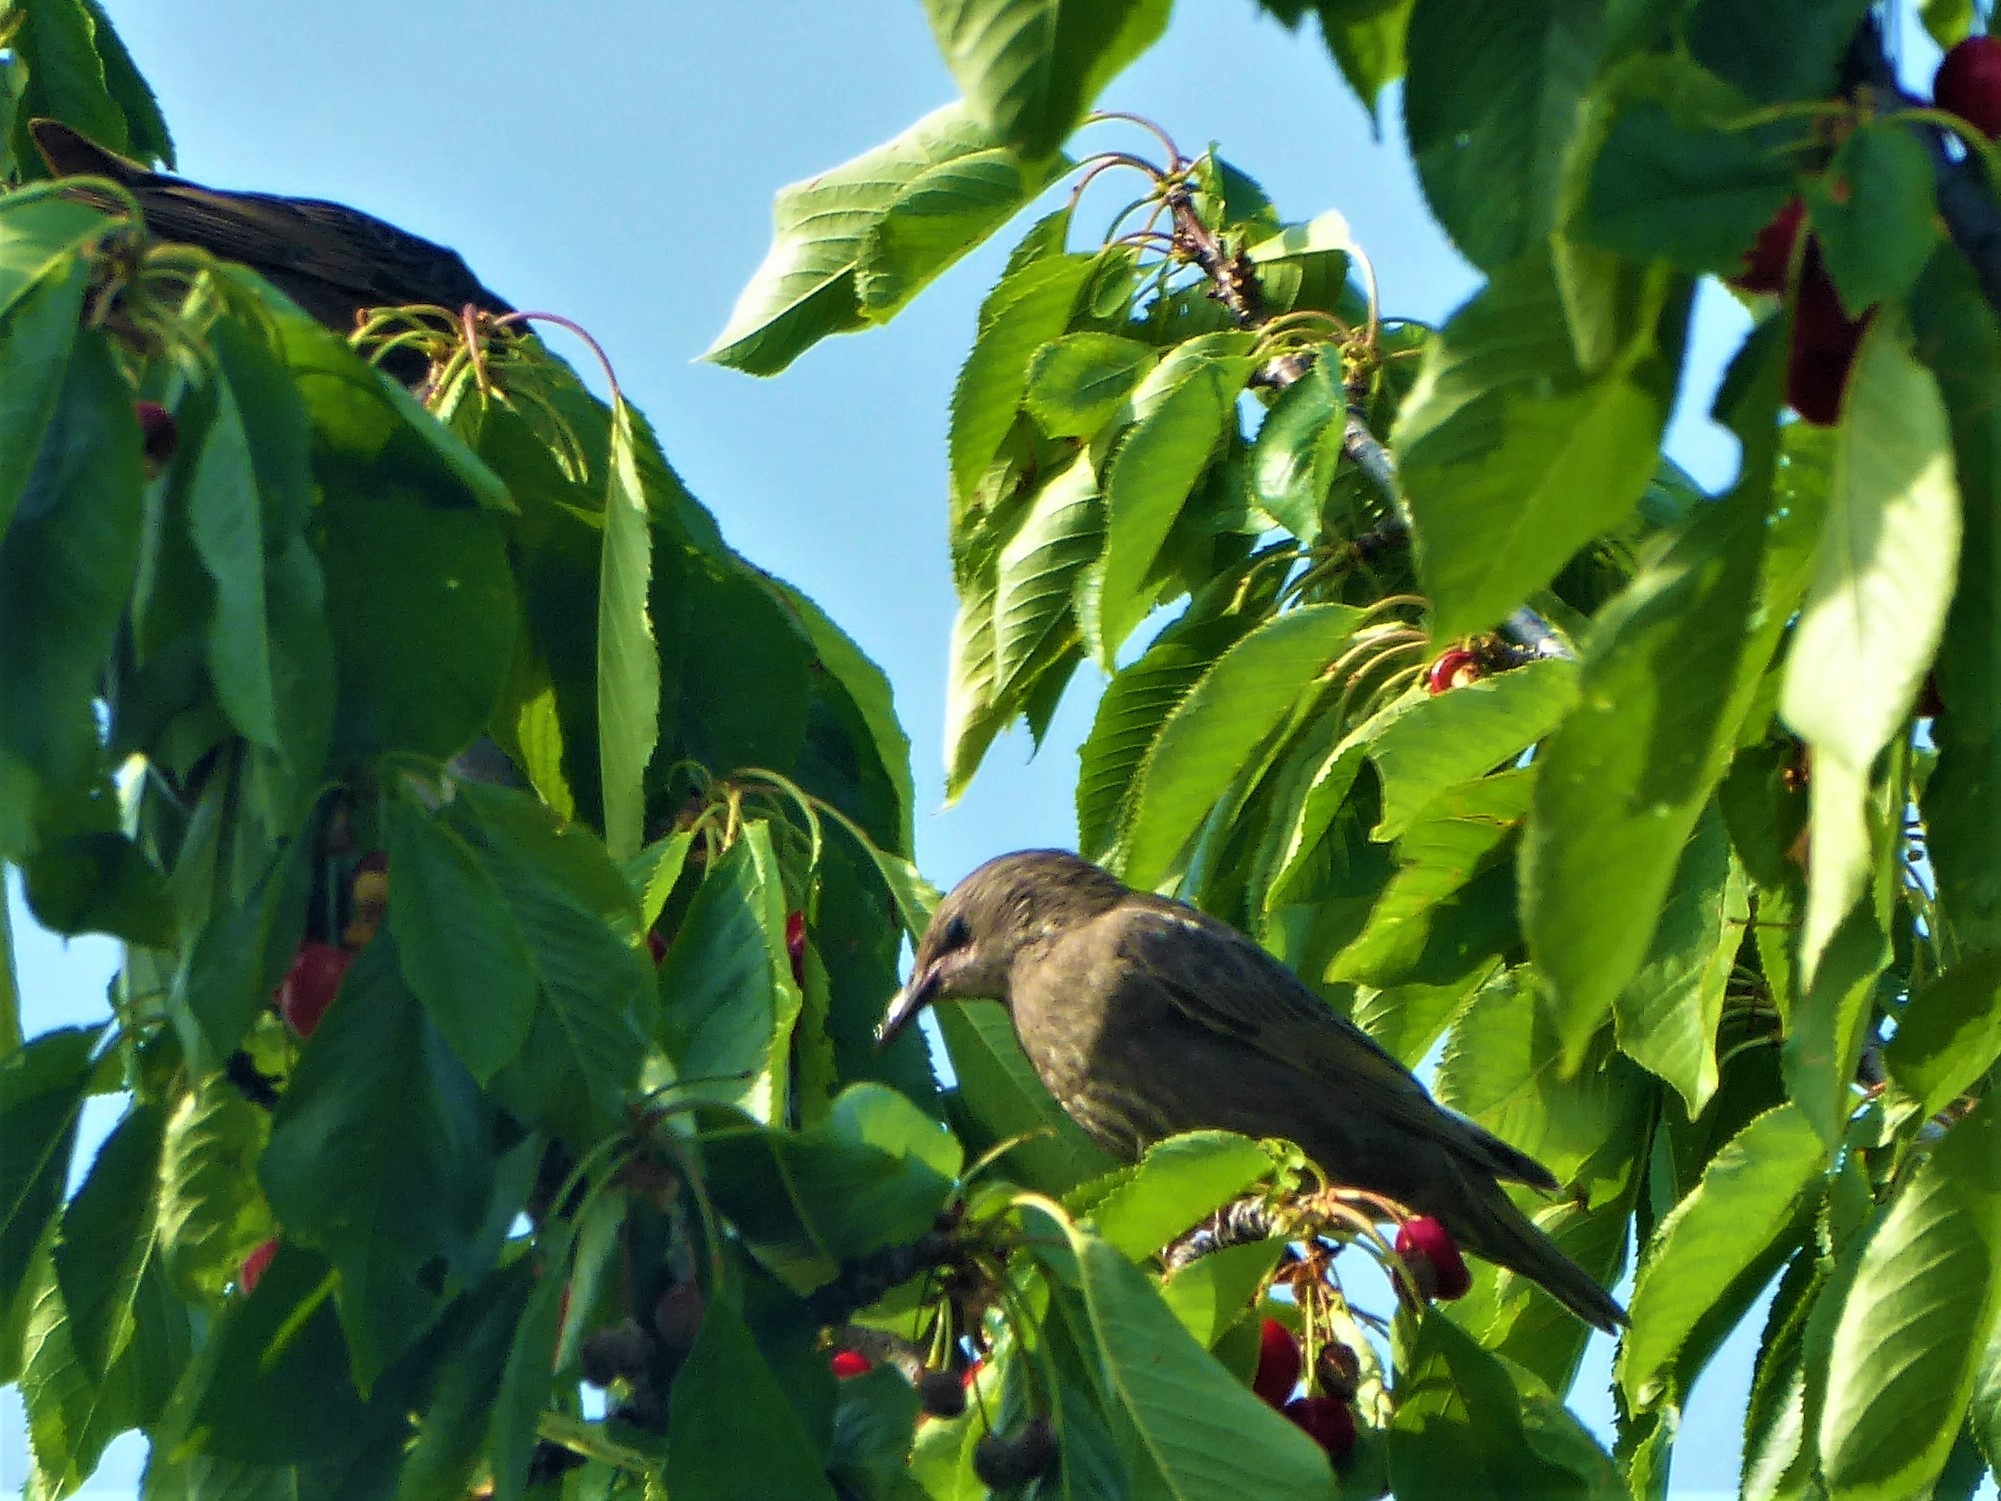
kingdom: Animalia
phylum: Chordata
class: Aves
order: Passeriformes
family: Sturnidae
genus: Sturnus
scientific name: Sturnus vulgaris
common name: Common starling
